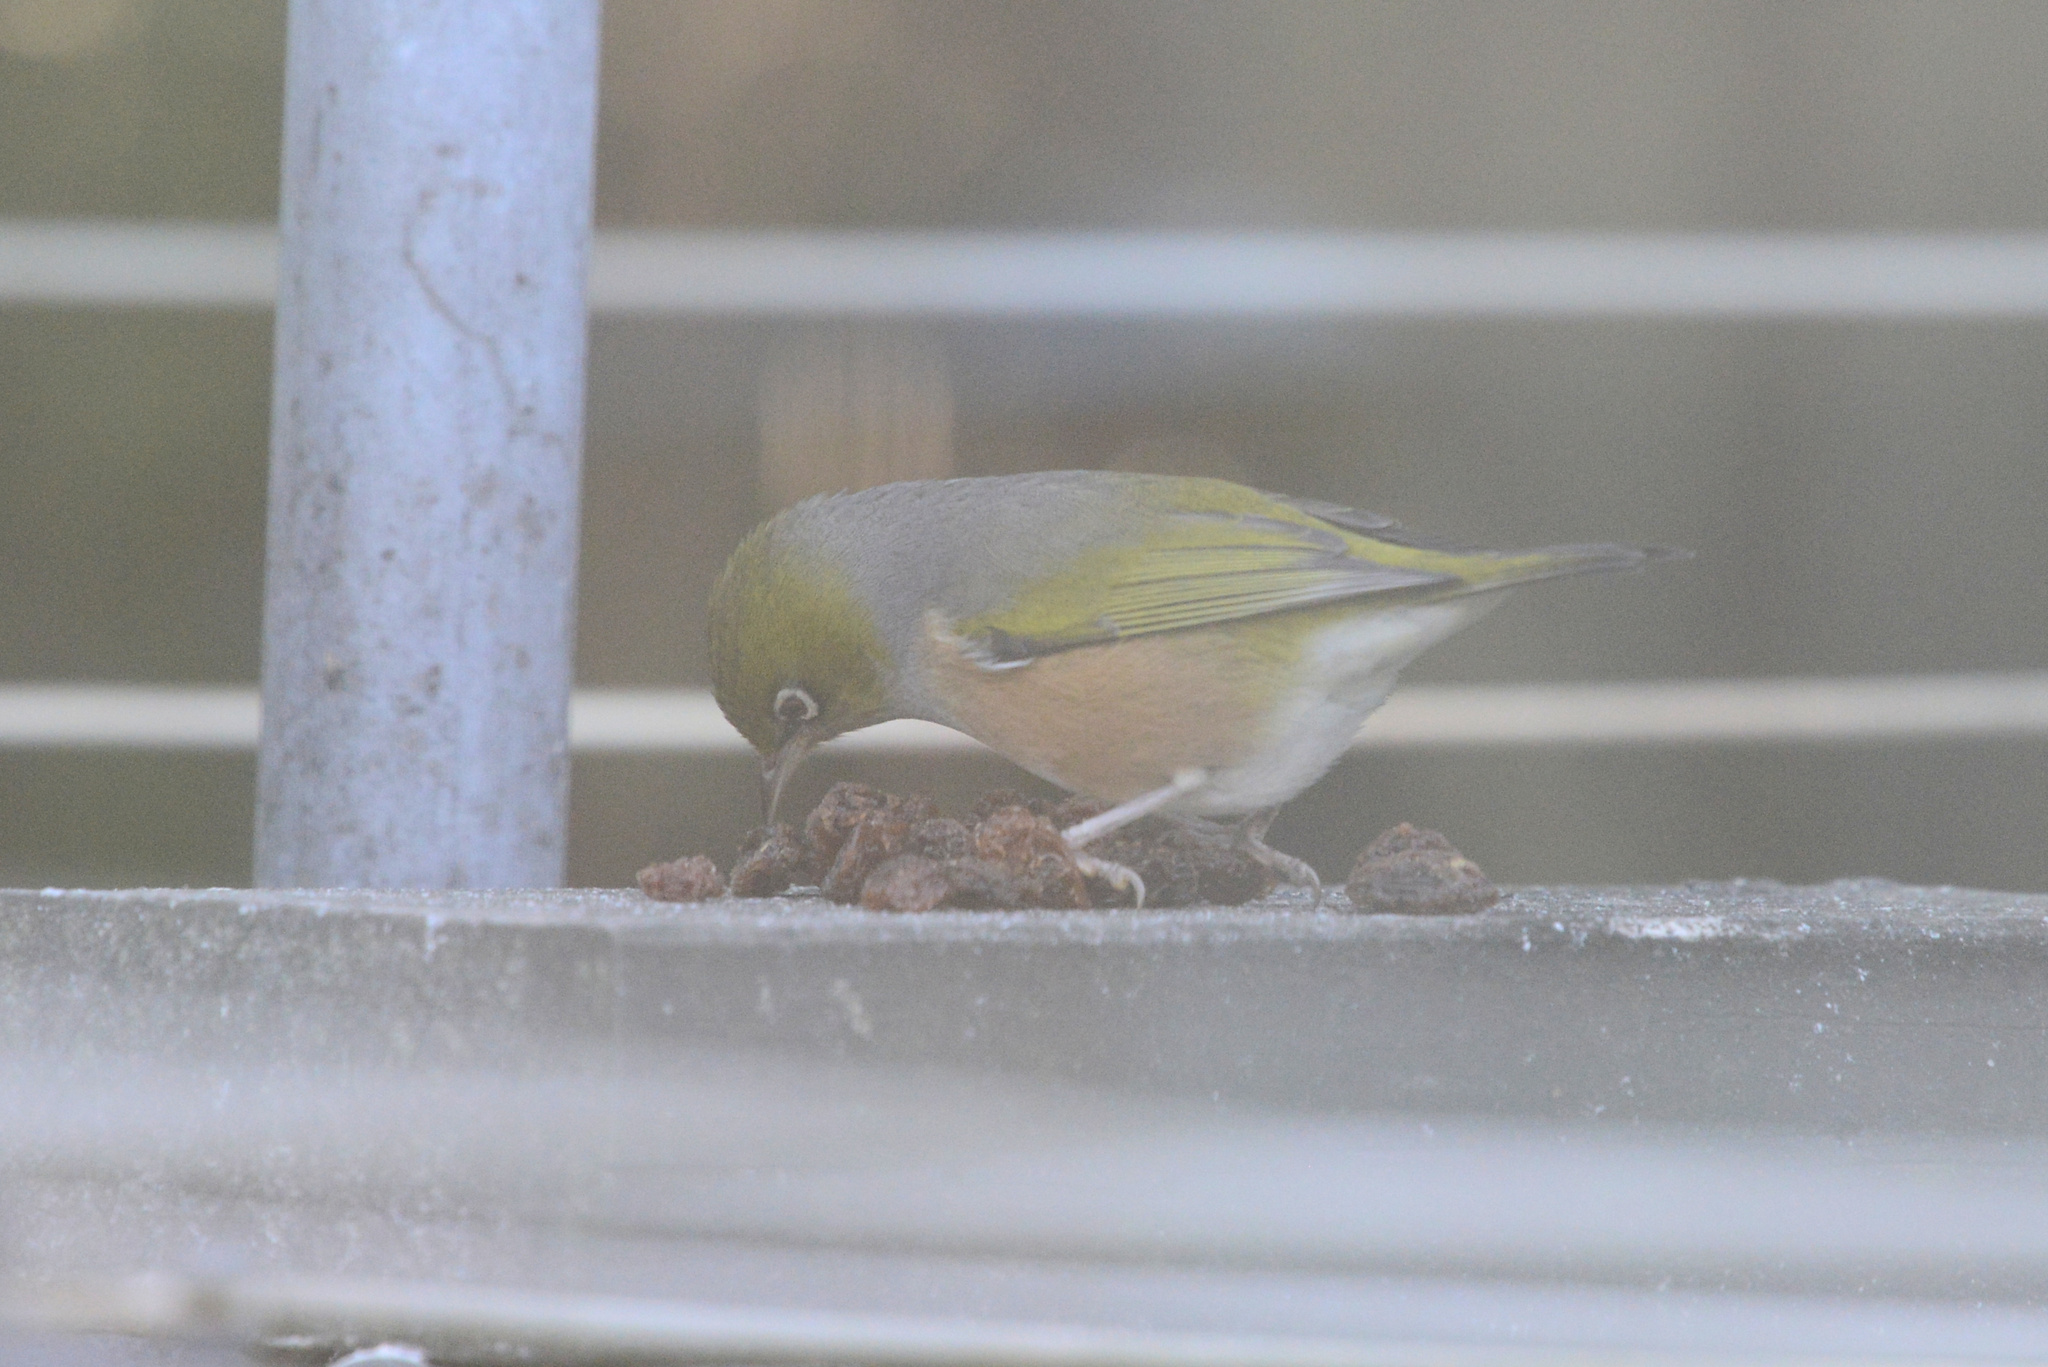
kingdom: Animalia
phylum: Chordata
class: Aves
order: Passeriformes
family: Zosteropidae
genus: Zosterops
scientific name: Zosterops lateralis
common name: Silvereye
